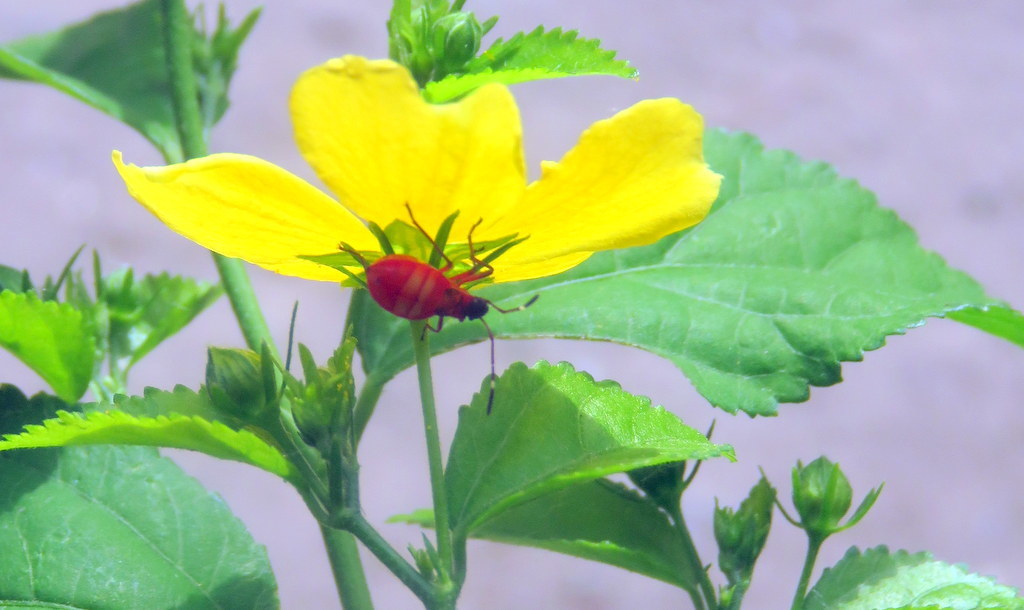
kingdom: Animalia
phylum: Arthropoda
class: Insecta
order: Hemiptera
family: Pyrrhocoridae
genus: Dysdercus
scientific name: Dysdercus
